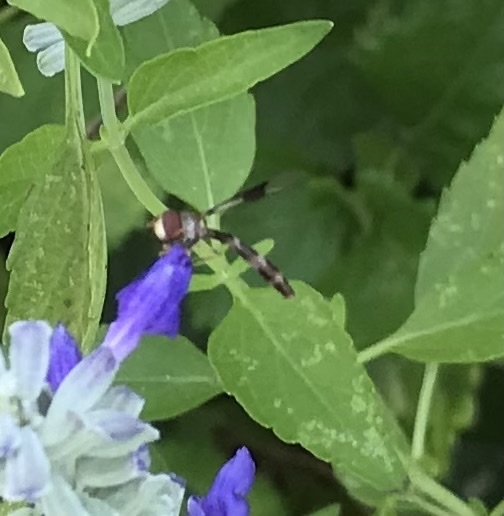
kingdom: Animalia
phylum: Arthropoda
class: Insecta
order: Diptera
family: Syrphidae
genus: Hypocritanus
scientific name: Hypocritanus fascipennis
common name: Eastern band-winged hover fly
